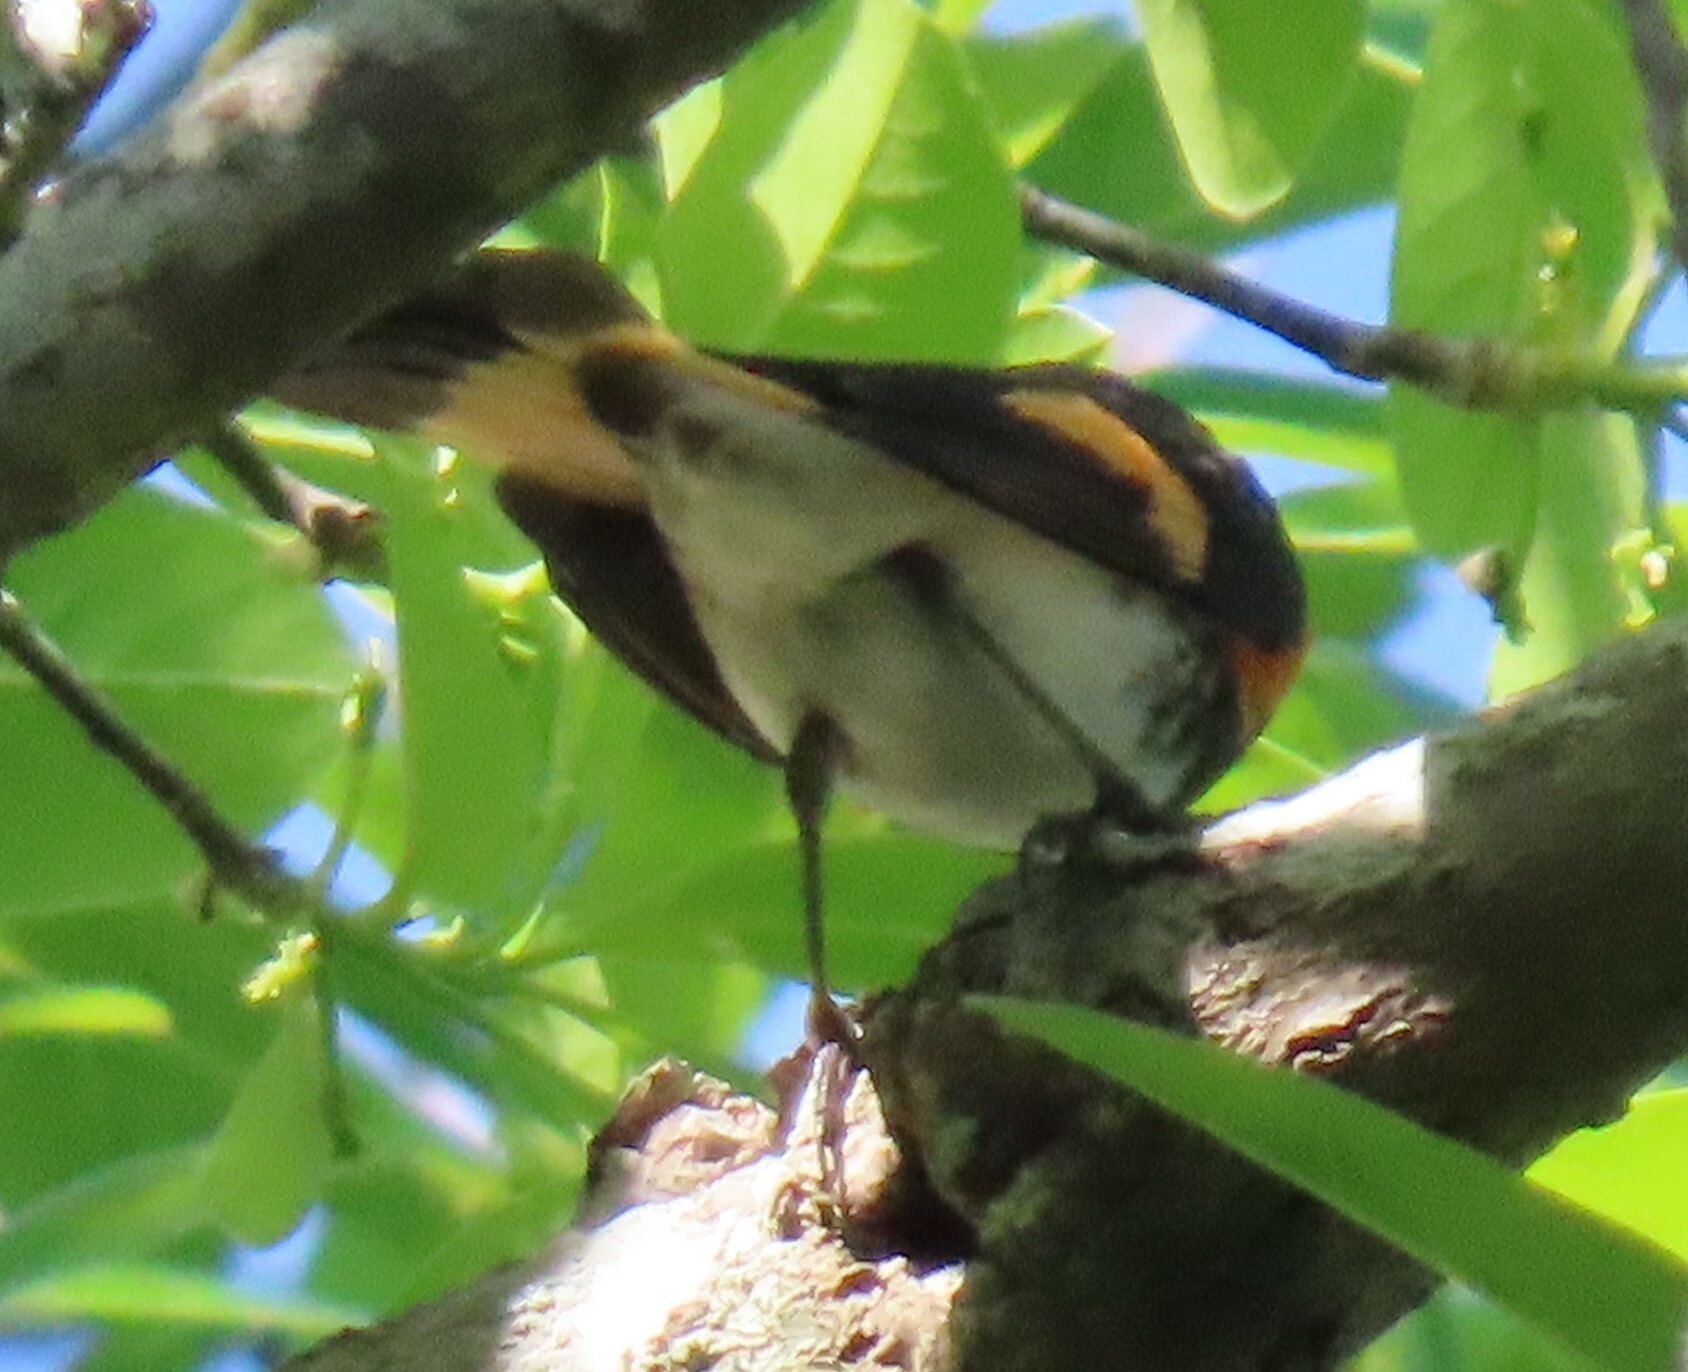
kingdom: Animalia
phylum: Chordata
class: Aves
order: Passeriformes
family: Parulidae
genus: Setophaga
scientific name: Setophaga ruticilla
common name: American redstart
